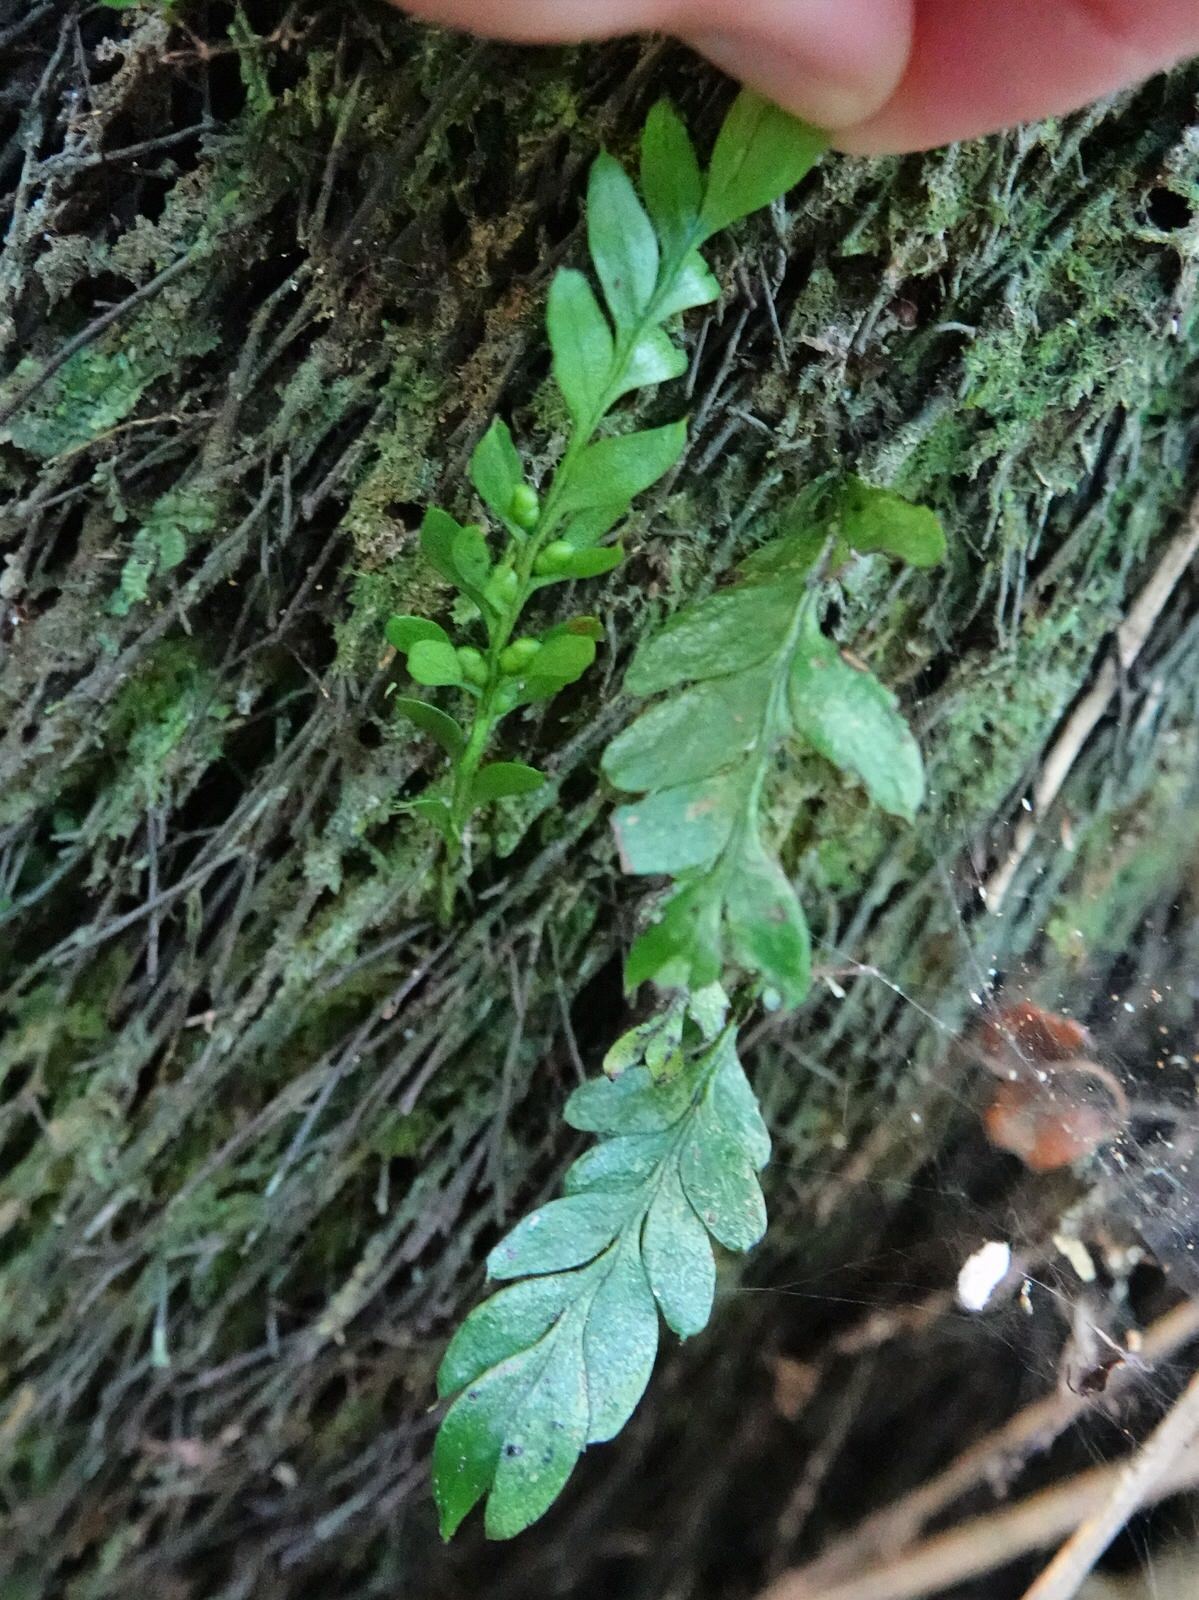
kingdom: Plantae
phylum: Tracheophyta
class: Polypodiopsida
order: Psilotales
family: Psilotaceae
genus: Tmesipteris
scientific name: Tmesipteris lanceolata
